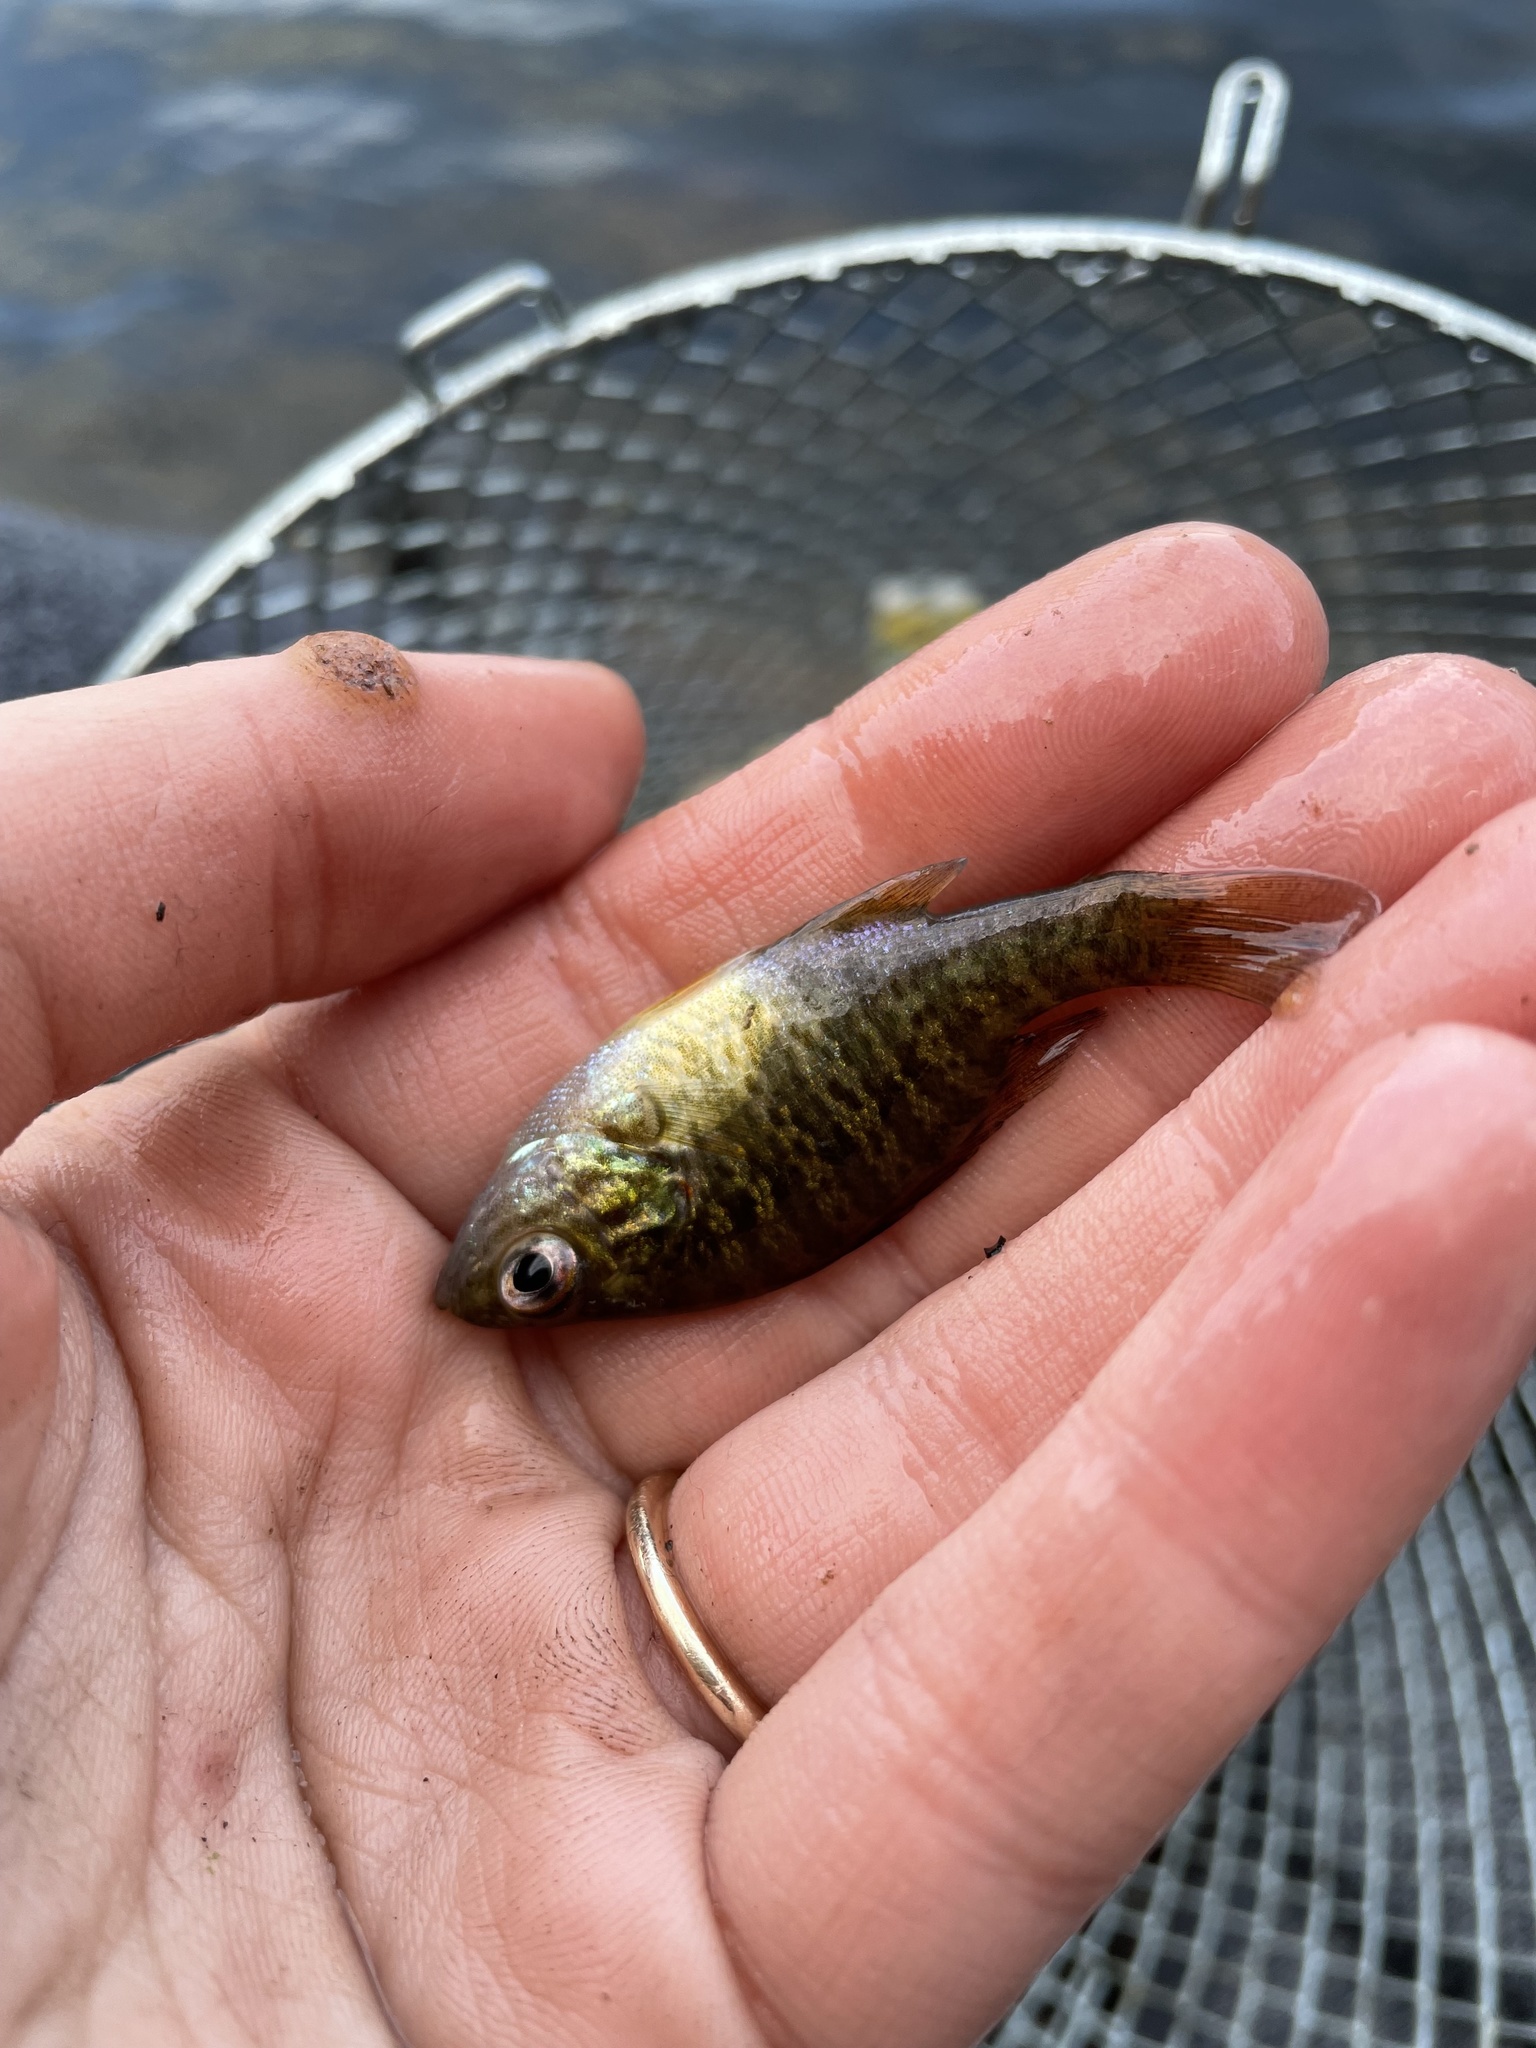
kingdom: Animalia
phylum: Chordata
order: Perciformes
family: Centrarchidae
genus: Lepomis
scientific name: Lepomis gibbosus
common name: Pumpkinseed
